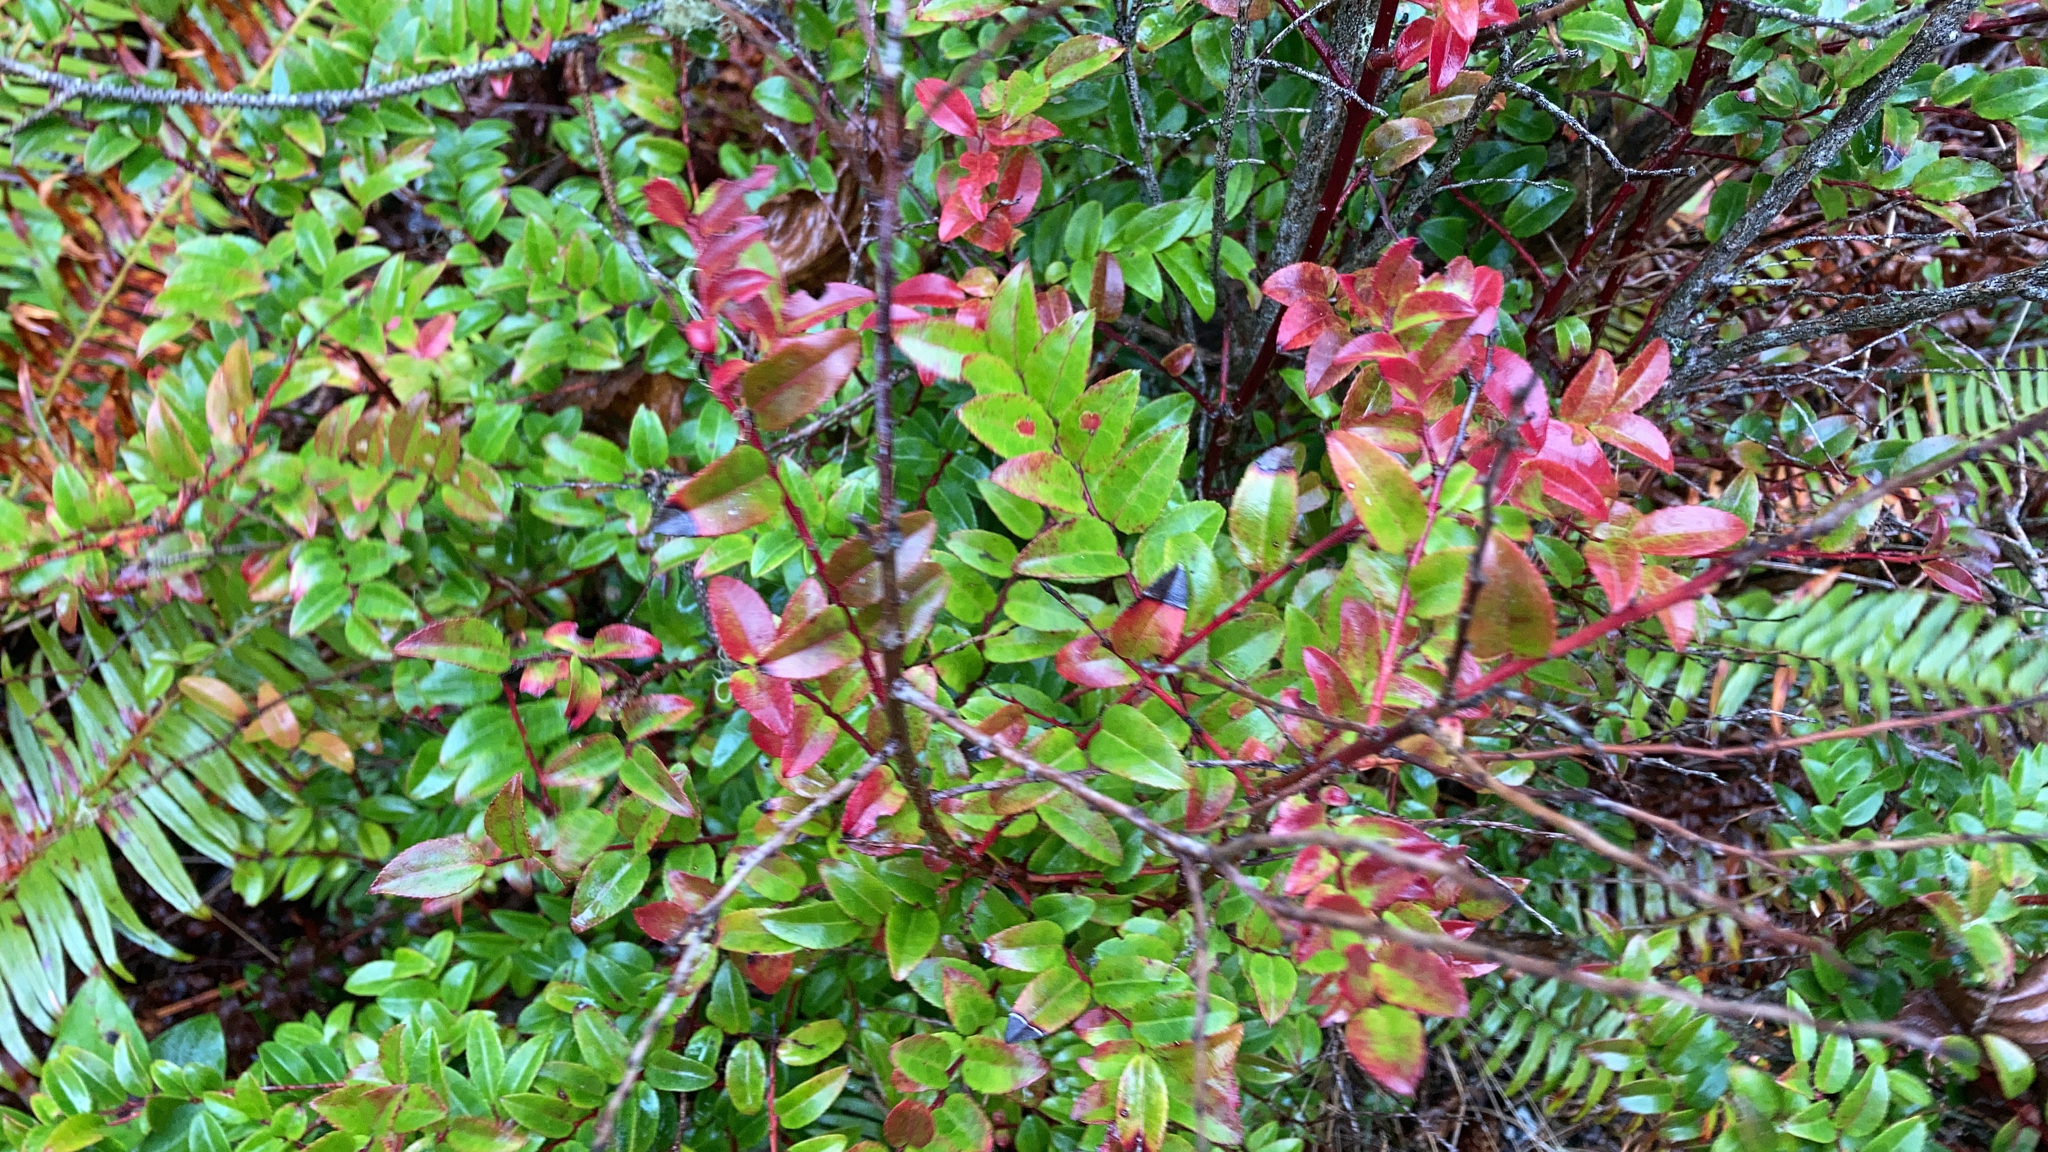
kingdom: Plantae
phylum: Tracheophyta
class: Magnoliopsida
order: Ericales
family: Ericaceae
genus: Vaccinium
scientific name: Vaccinium ovatum
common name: California-huckleberry
